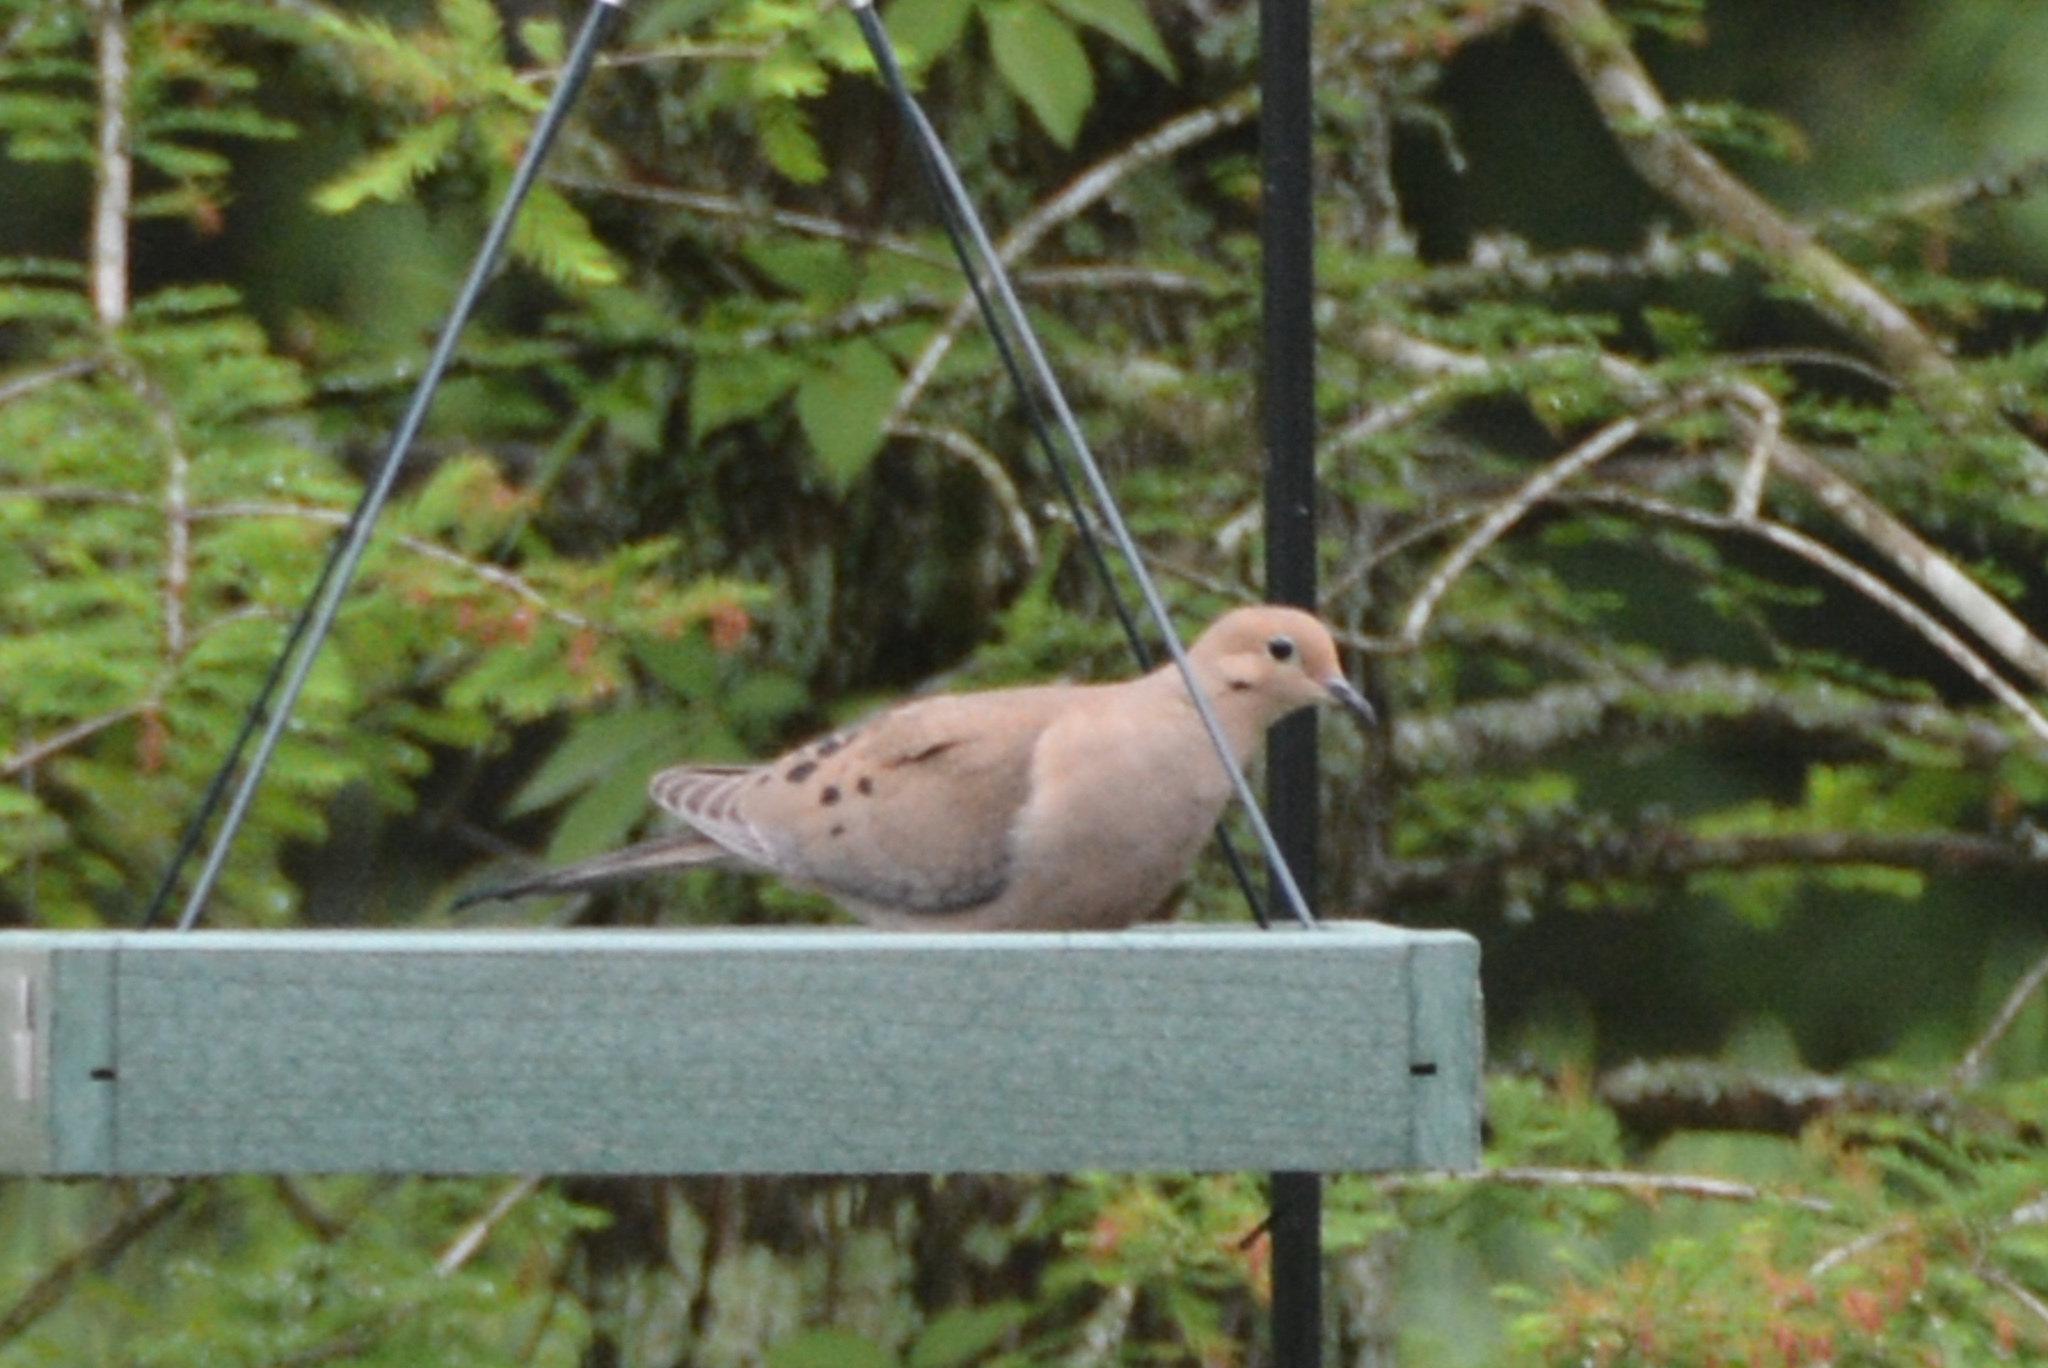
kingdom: Animalia
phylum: Chordata
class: Aves
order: Columbiformes
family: Columbidae
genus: Zenaida
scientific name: Zenaida macroura
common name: Mourning dove
